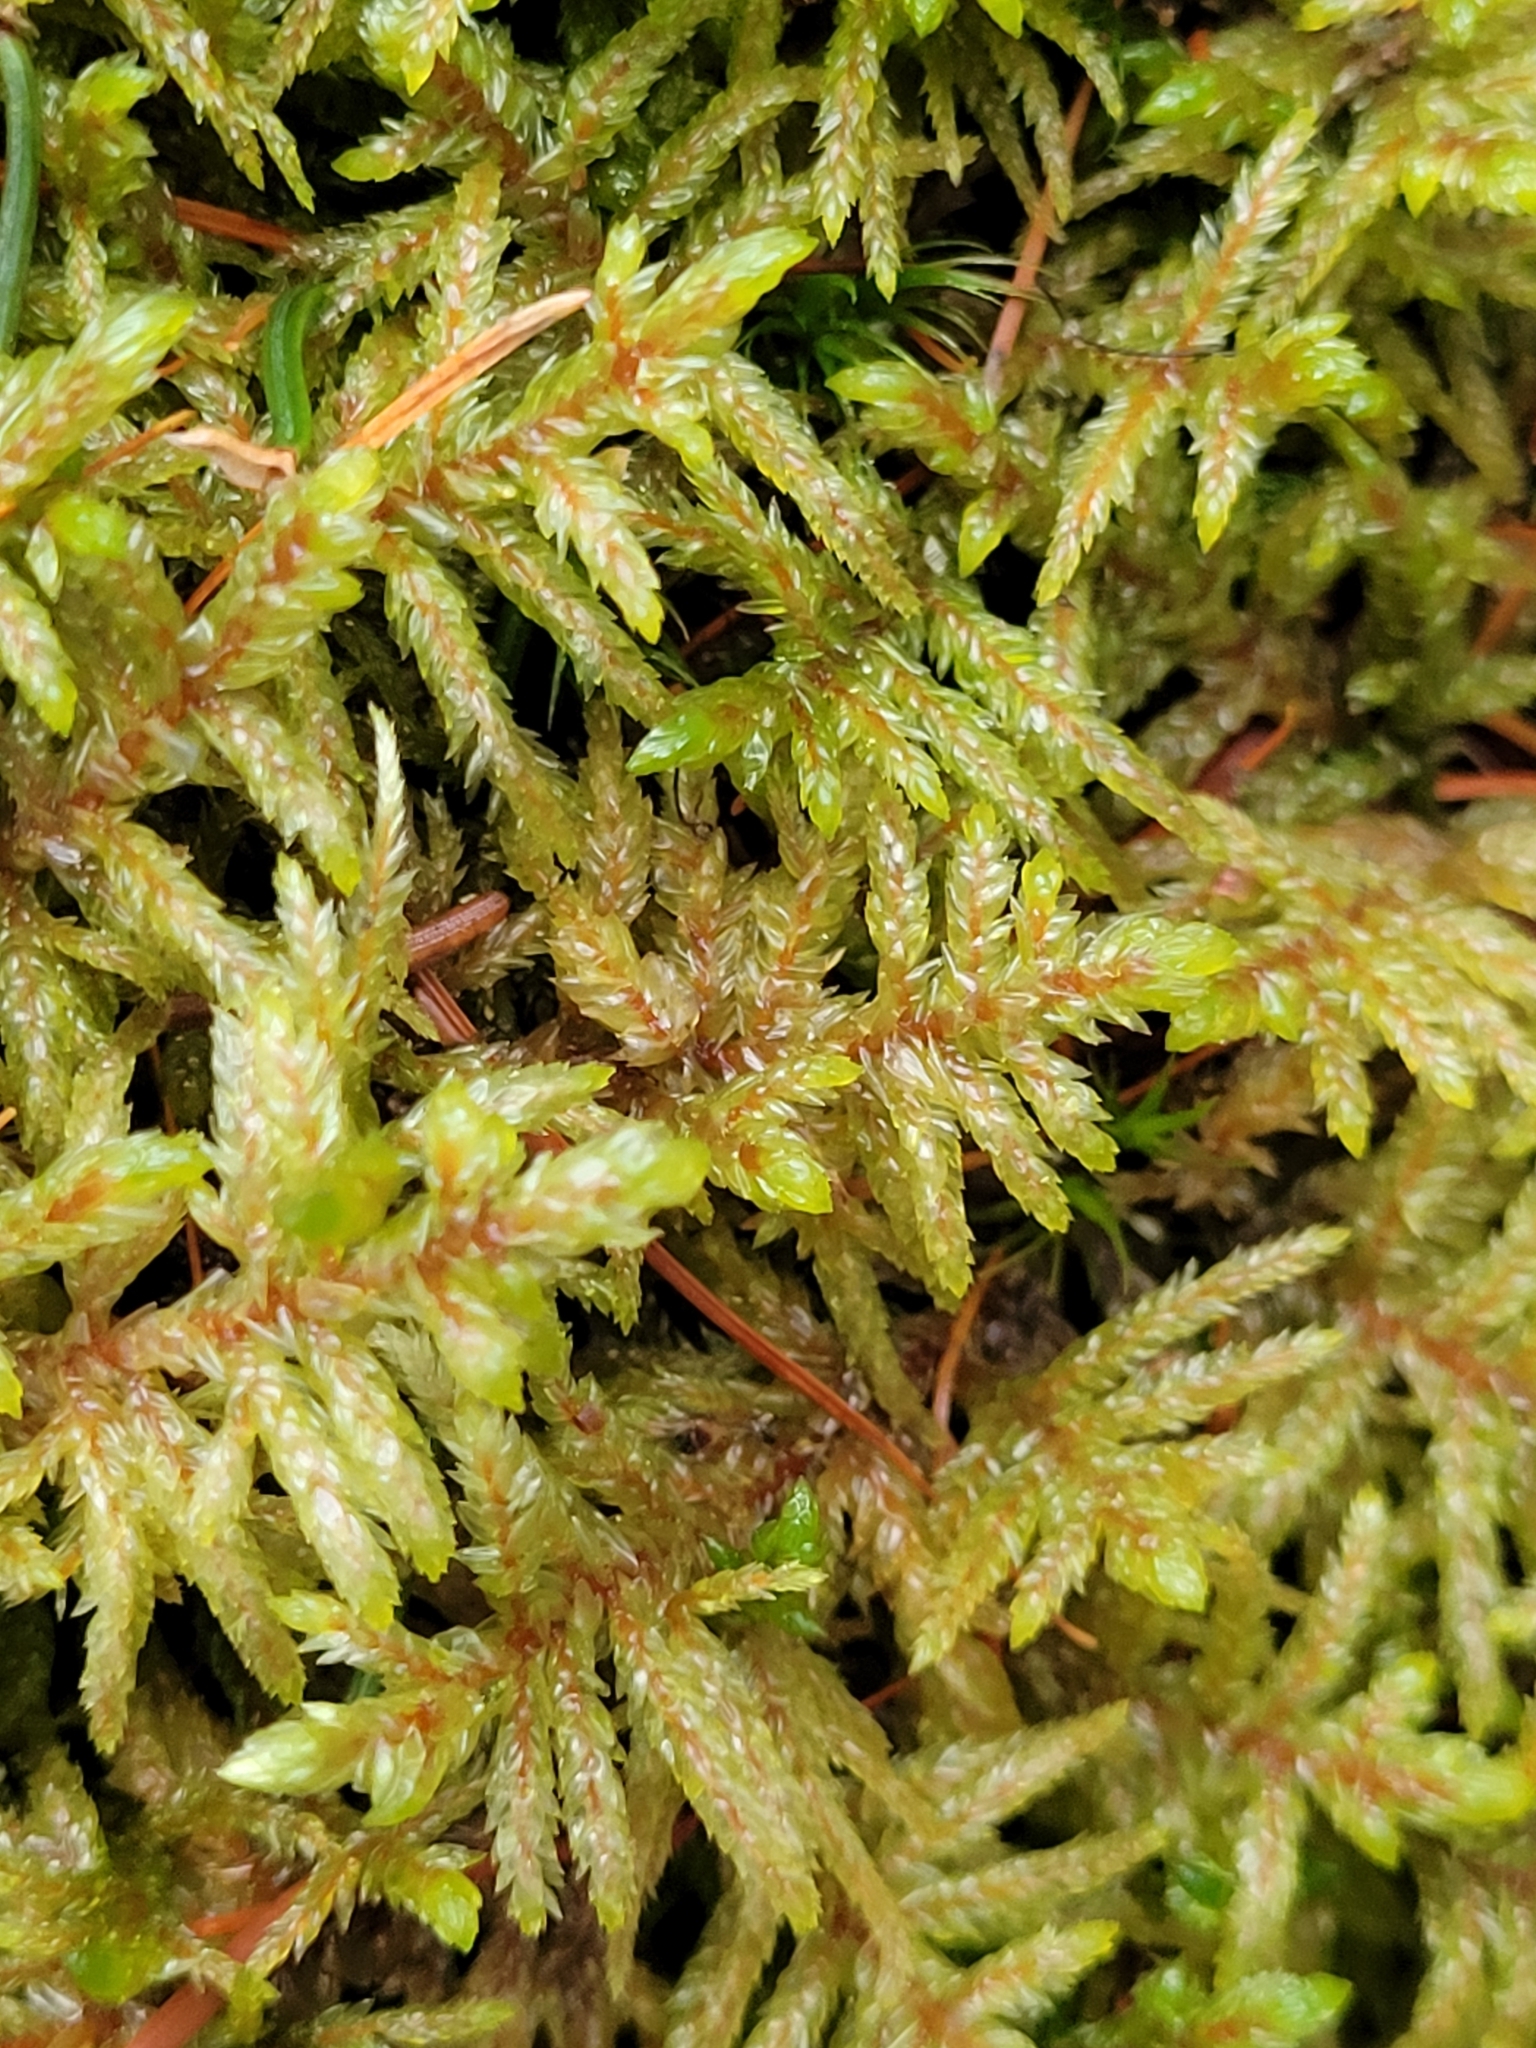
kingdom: Plantae
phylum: Bryophyta
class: Bryopsida
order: Hypnales
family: Hylocomiaceae
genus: Pleurozium
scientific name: Pleurozium schreberi
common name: Red-stemmed feather moss
